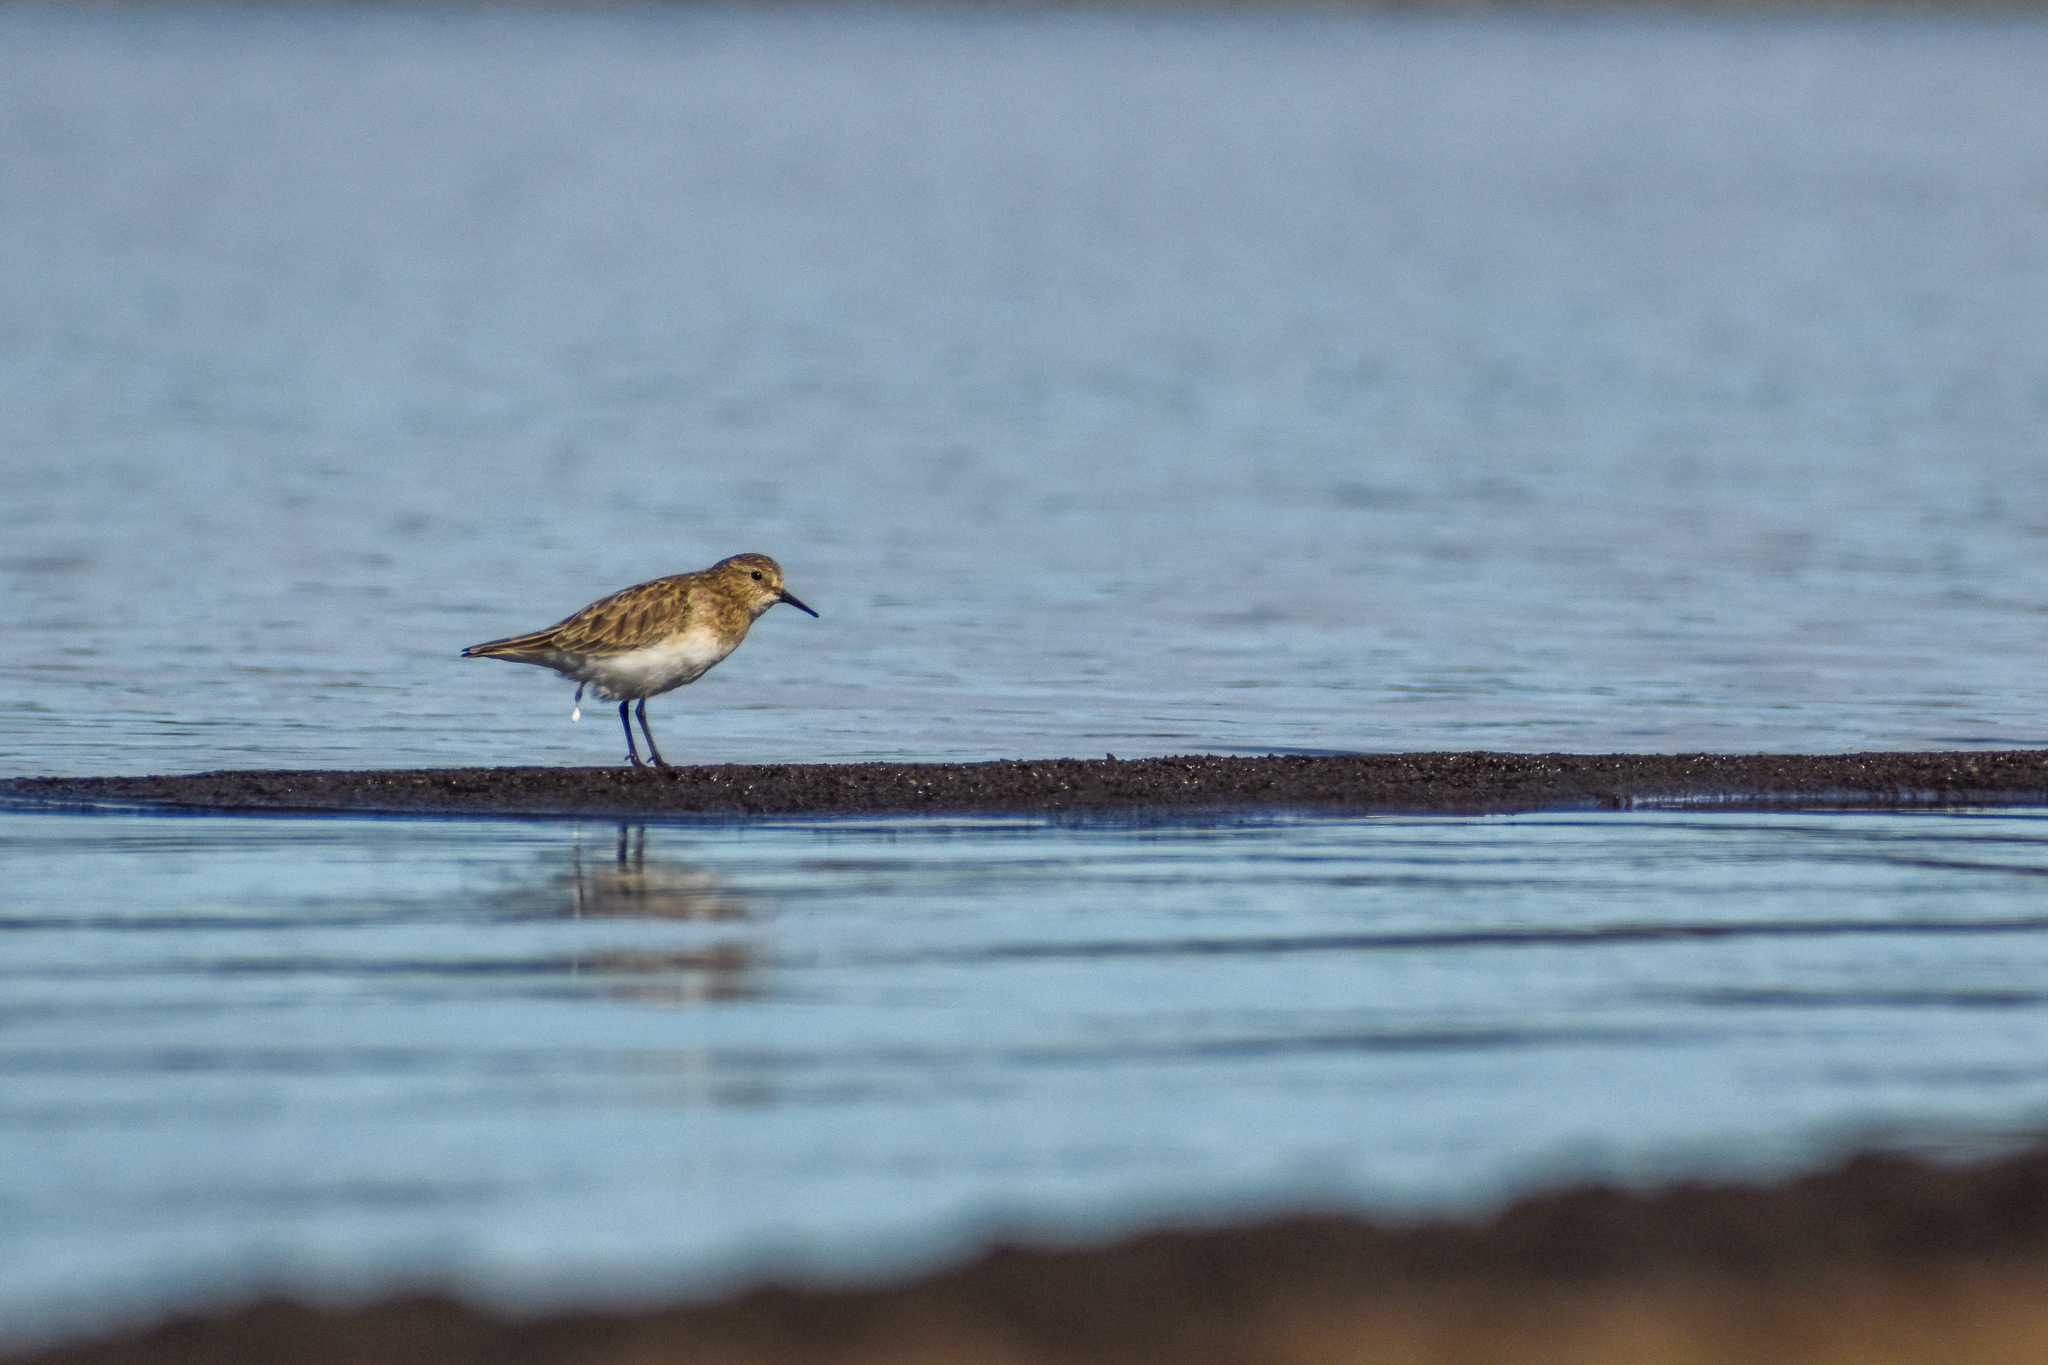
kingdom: Animalia
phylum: Chordata
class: Aves
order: Charadriiformes
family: Scolopacidae
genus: Calidris
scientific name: Calidris bairdii
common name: Baird's sandpiper
